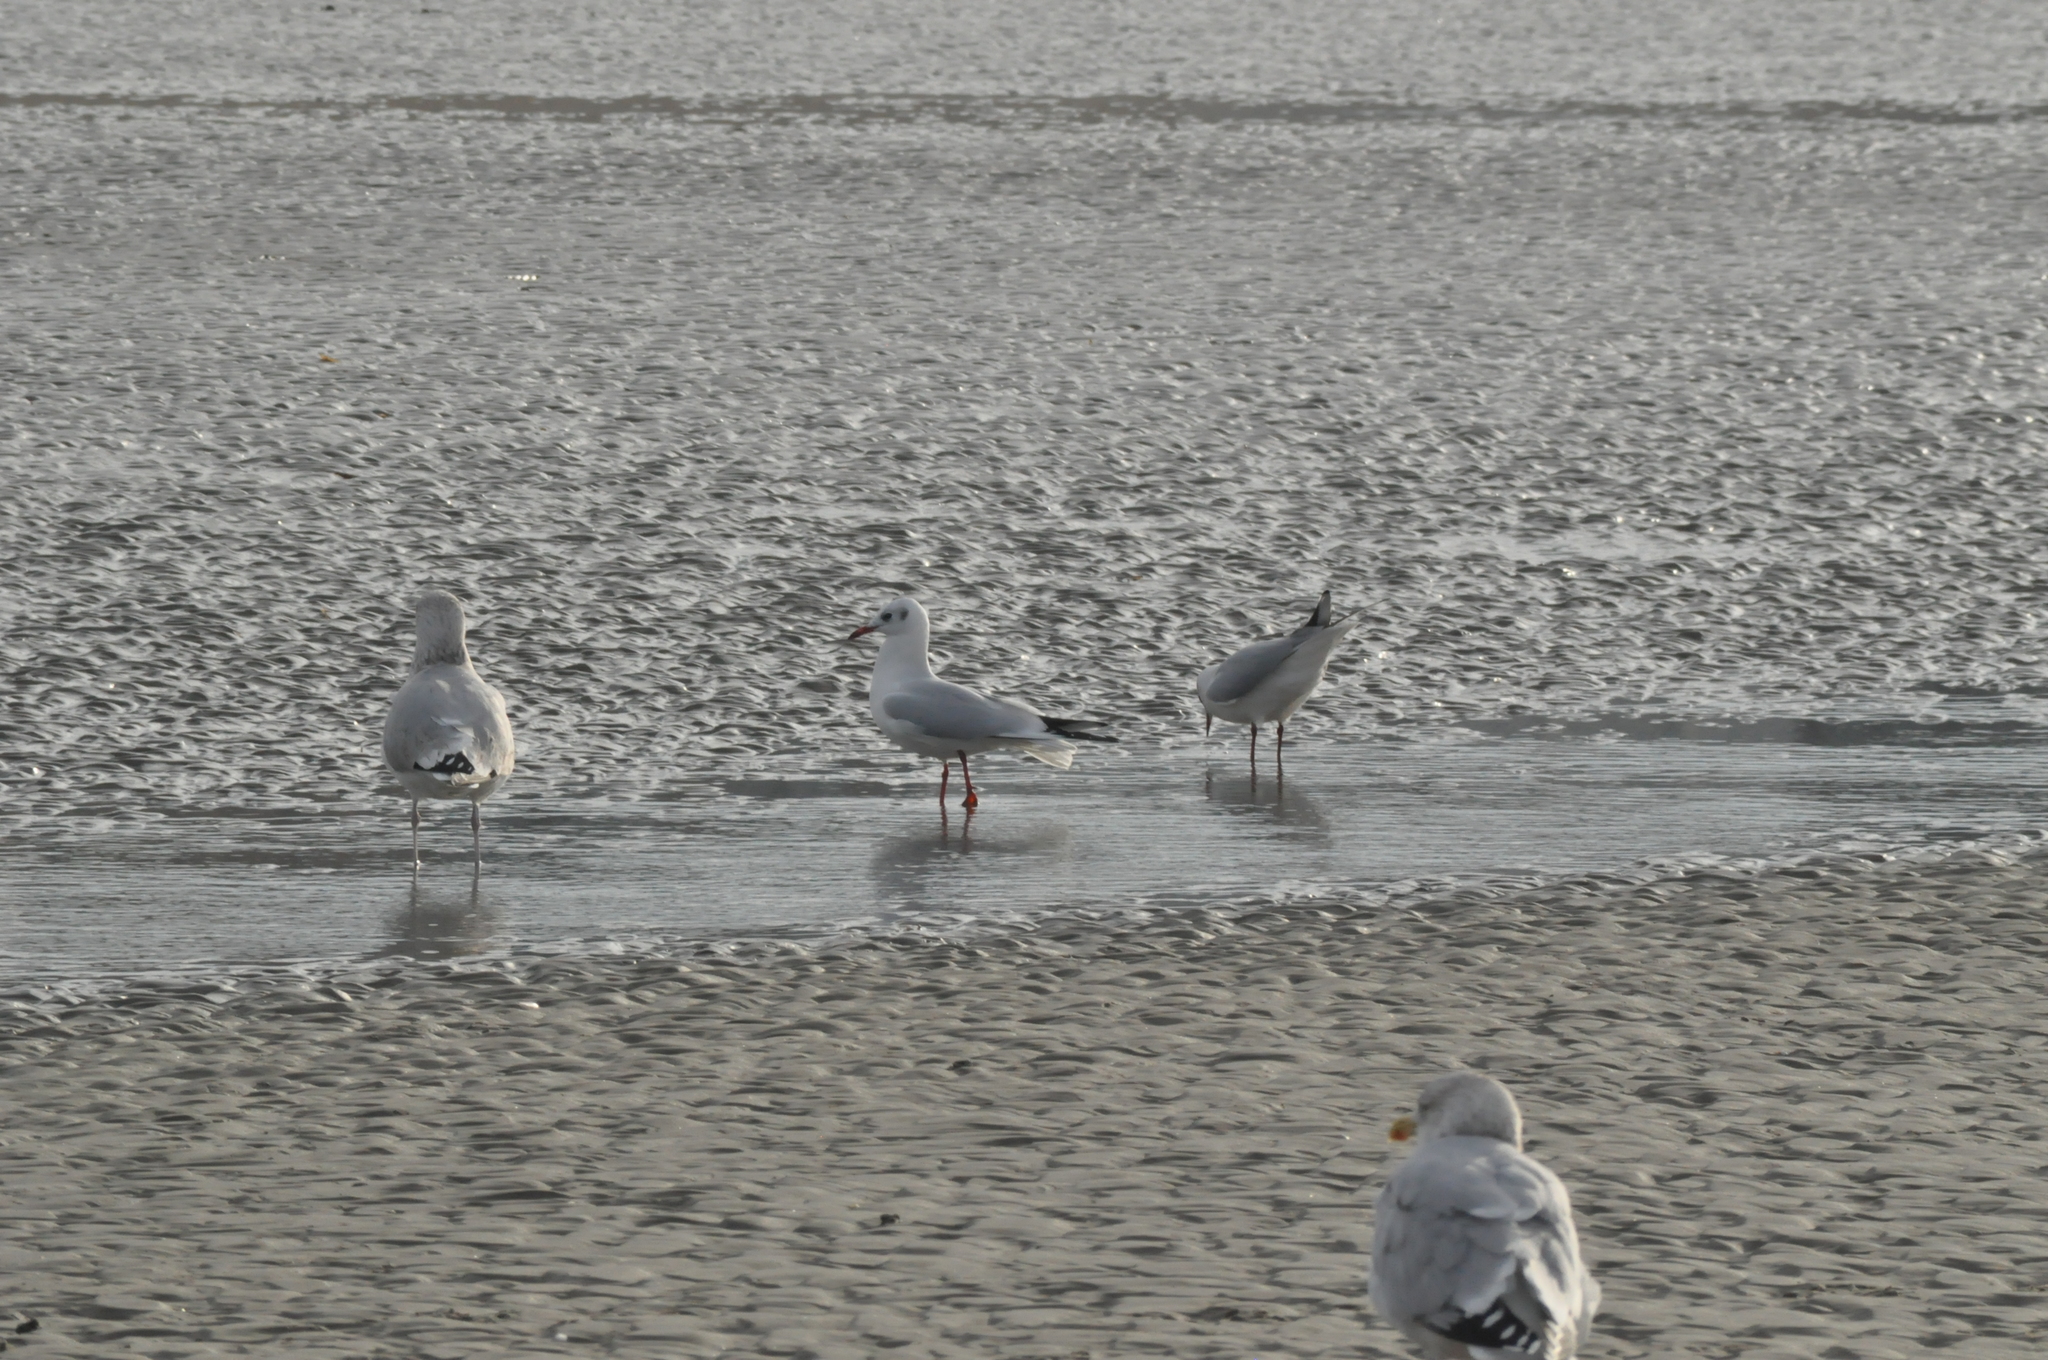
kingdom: Animalia
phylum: Chordata
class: Aves
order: Charadriiformes
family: Laridae
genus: Chroicocephalus
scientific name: Chroicocephalus ridibundus
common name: Black-headed gull
